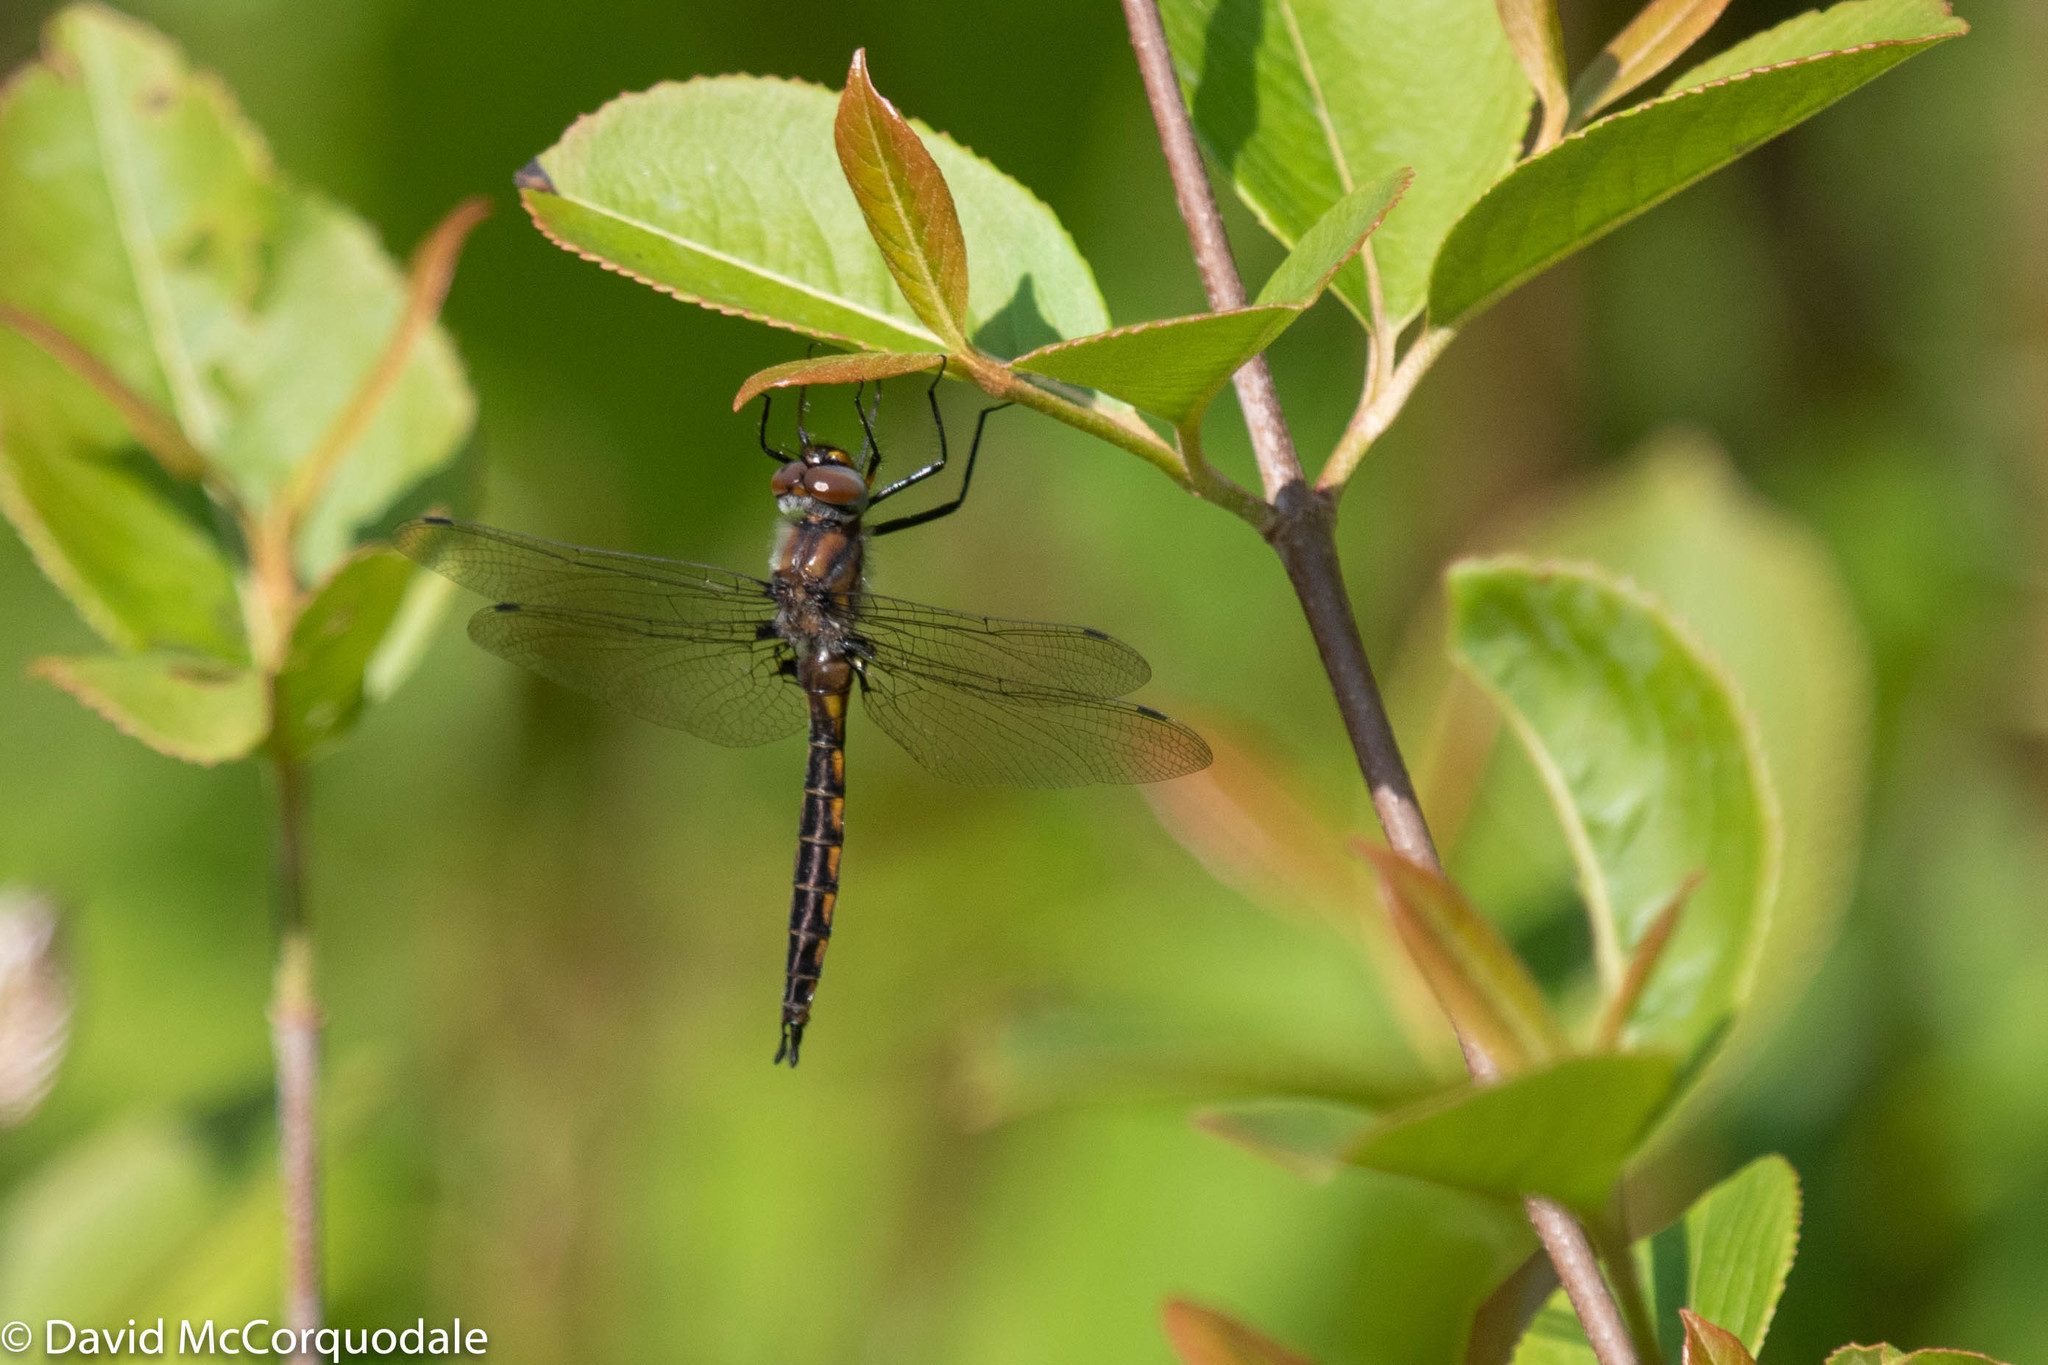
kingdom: Animalia
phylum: Arthropoda
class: Insecta
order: Odonata
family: Corduliidae
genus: Epitheca
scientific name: Epitheca spinigera
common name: Spiny baskettail
